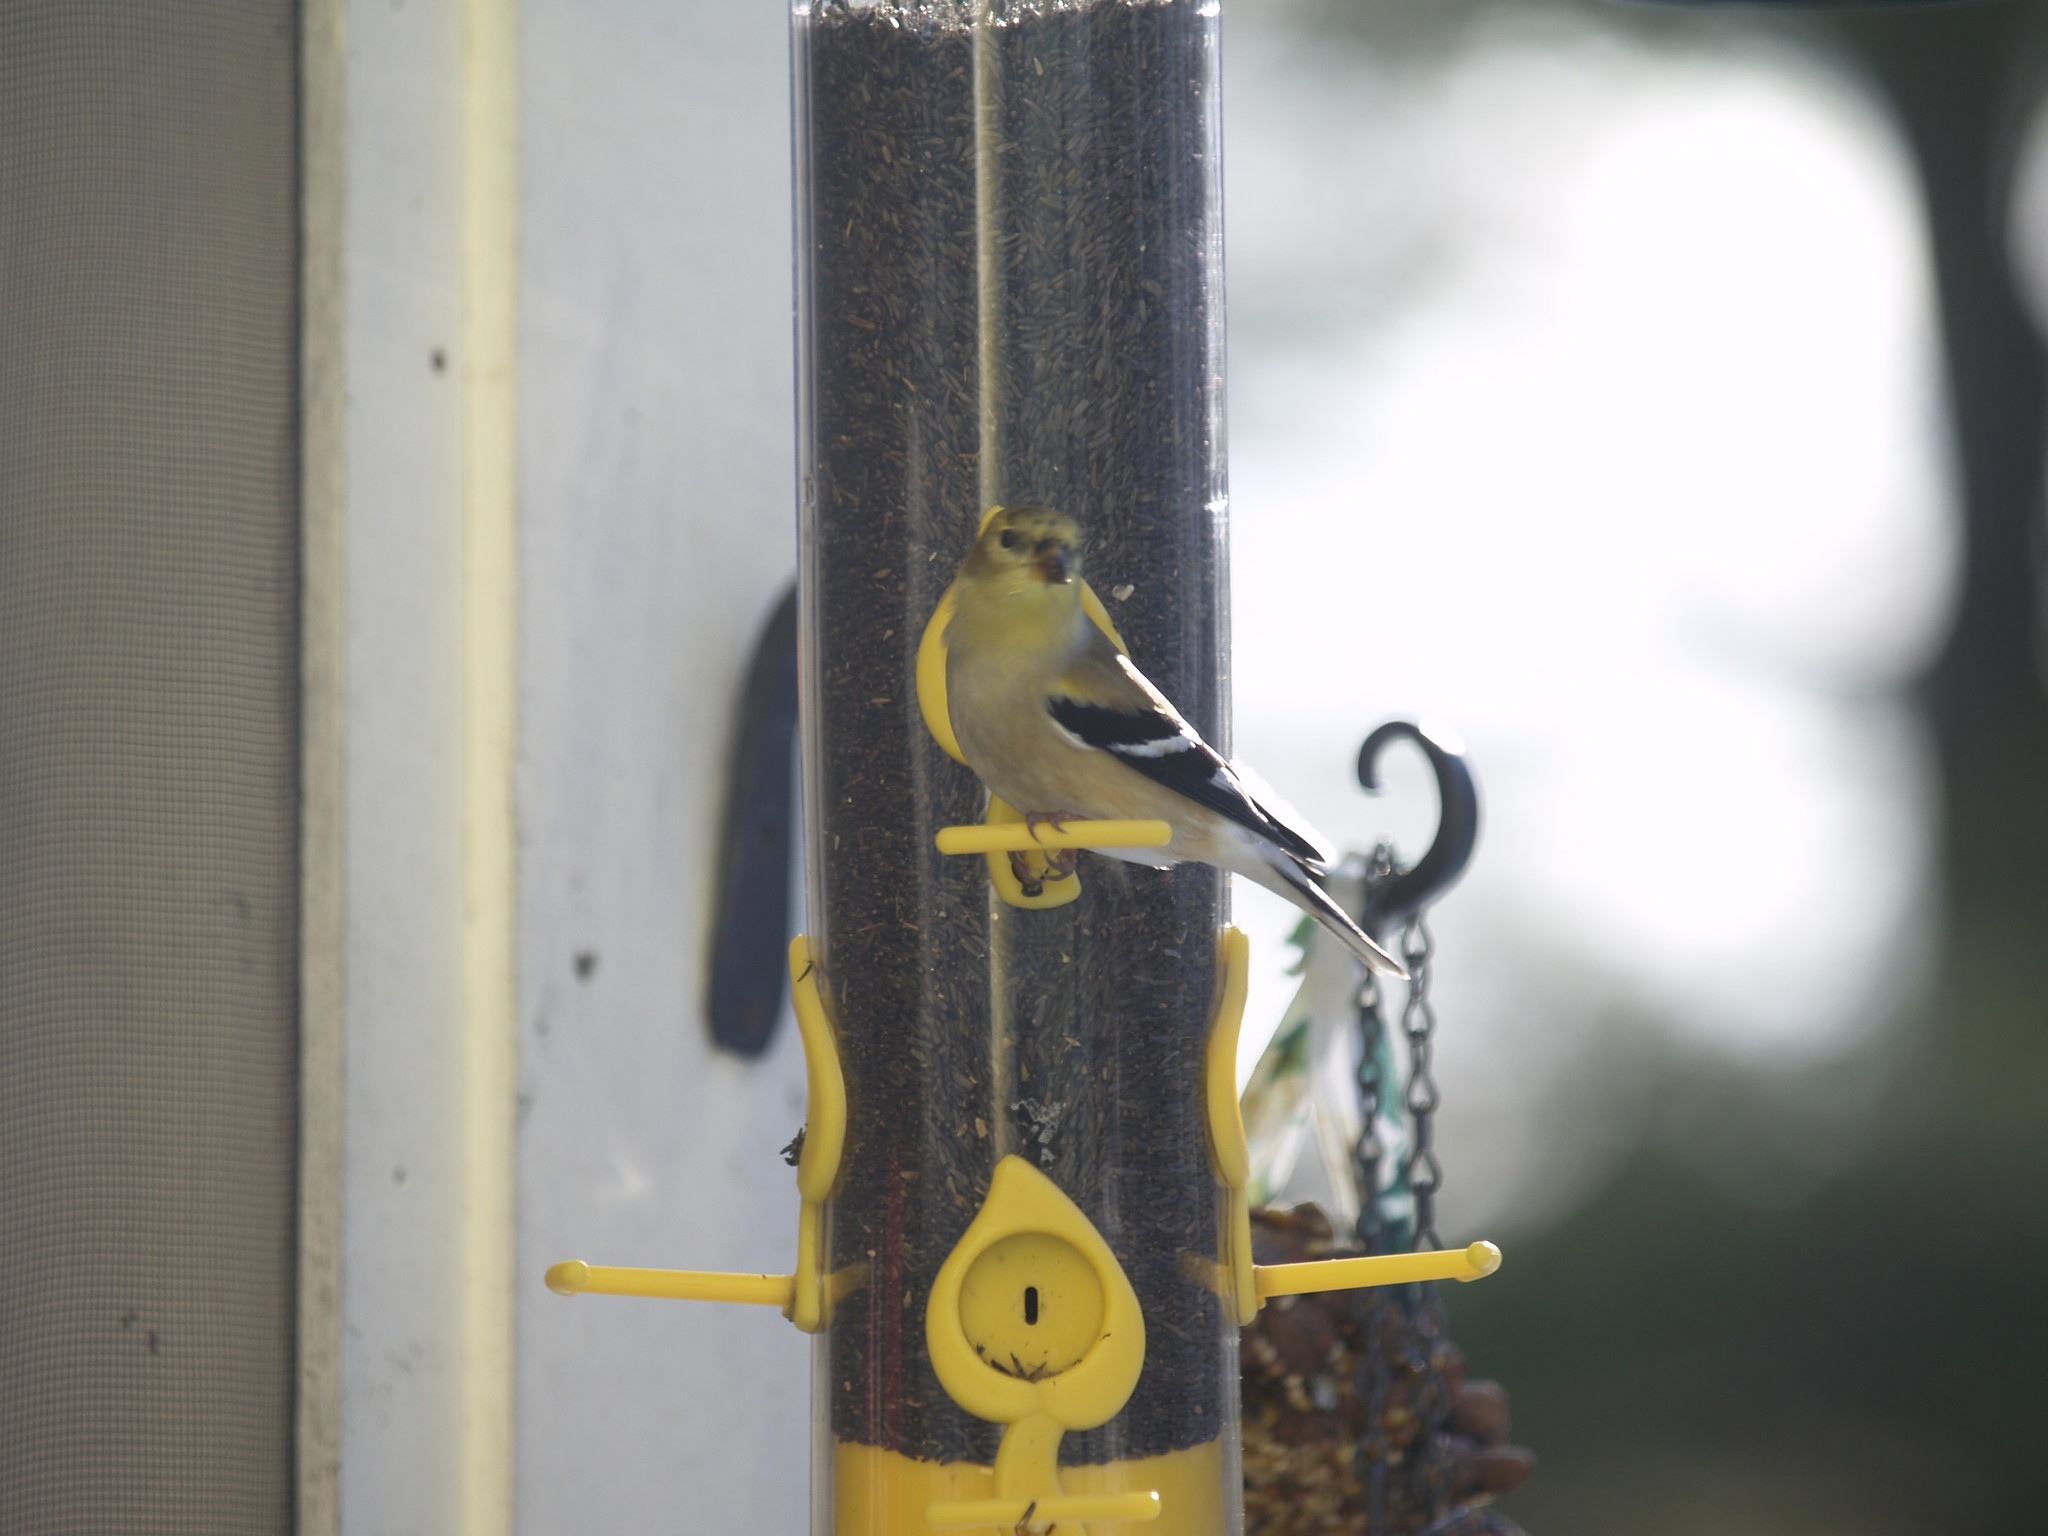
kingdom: Animalia
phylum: Chordata
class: Aves
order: Passeriformes
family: Fringillidae
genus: Spinus
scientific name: Spinus tristis
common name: American goldfinch
